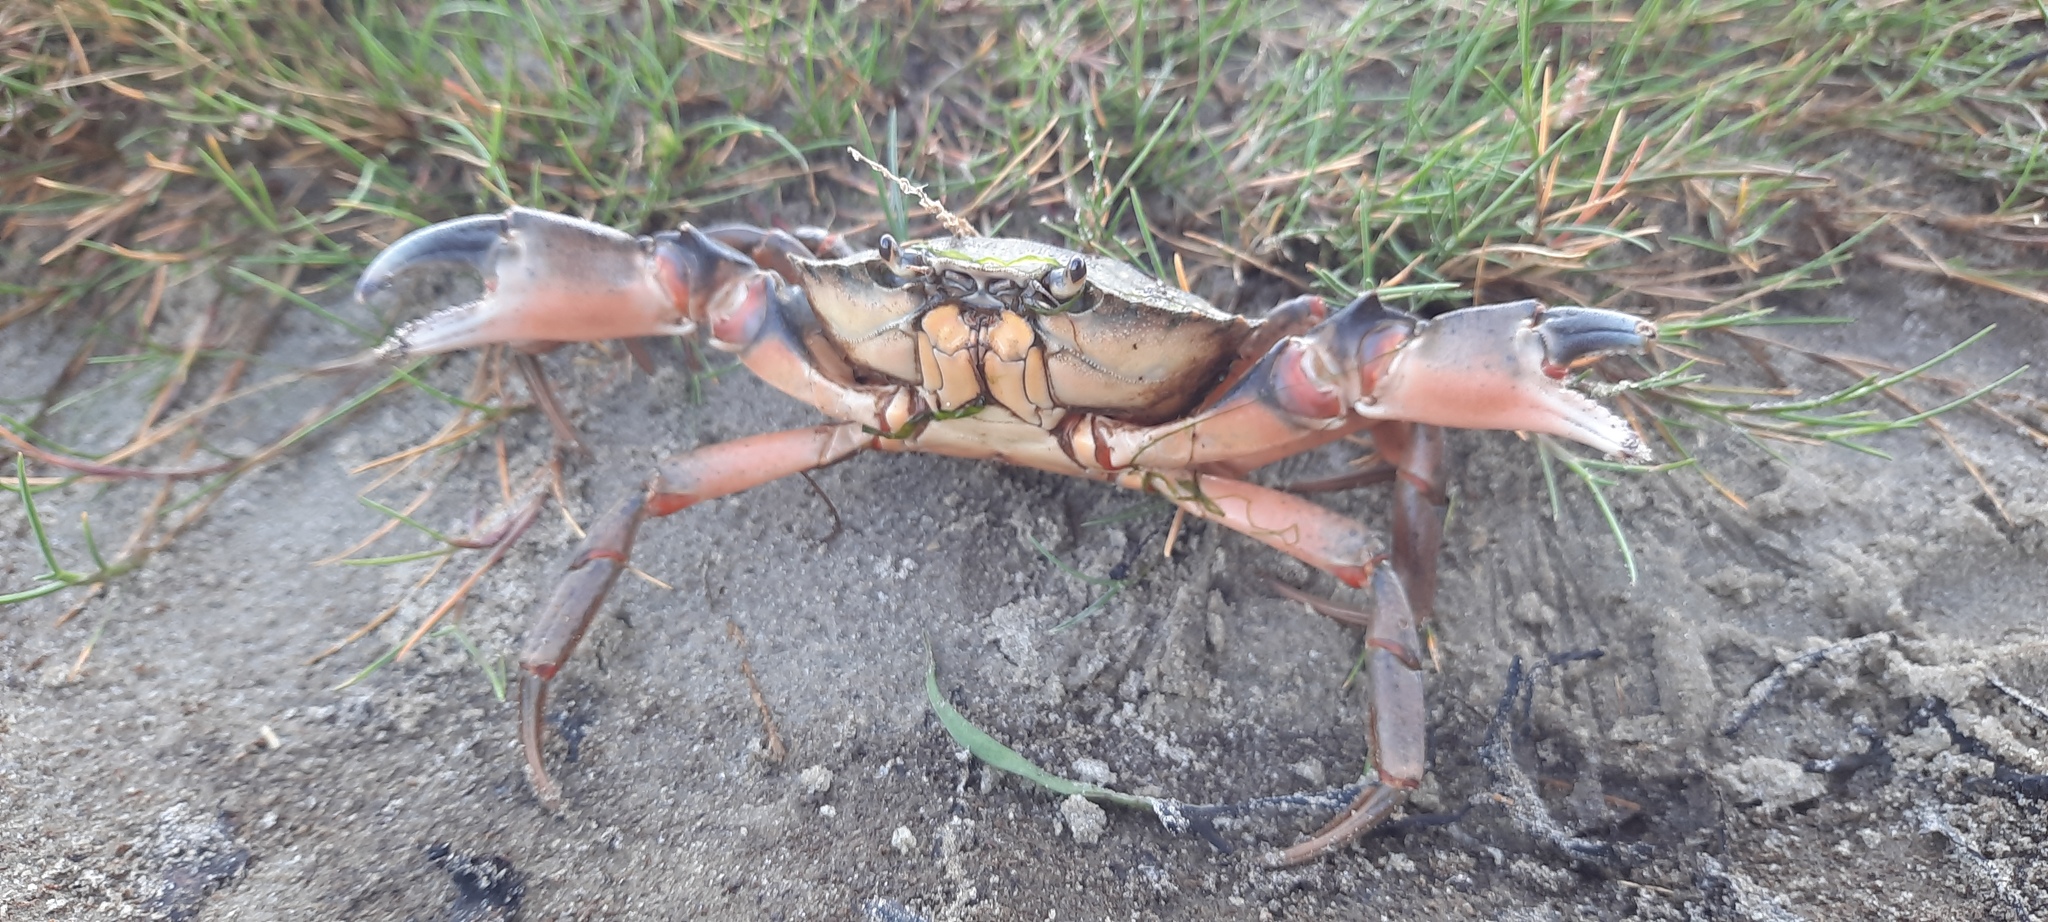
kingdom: Animalia
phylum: Arthropoda
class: Malacostraca
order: Decapoda
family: Carcinidae
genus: Carcinus
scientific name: Carcinus maenas
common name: European green crab
